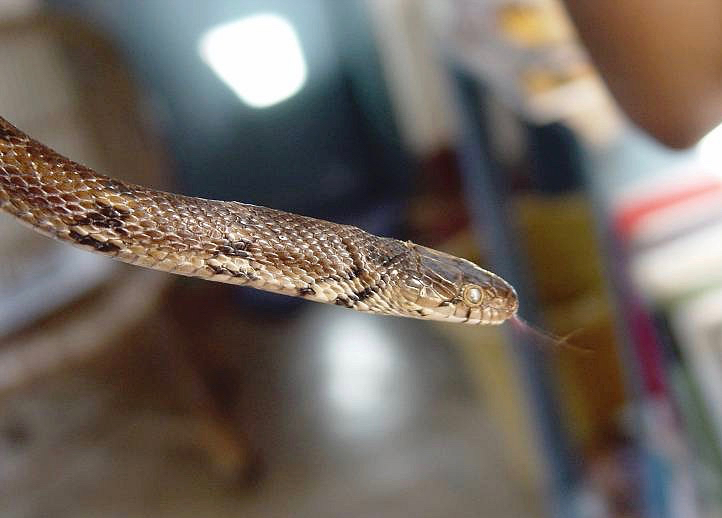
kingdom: Animalia
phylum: Chordata
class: Squamata
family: Colubridae
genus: Coelognathus
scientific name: Coelognathus helena
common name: Trinket snake
